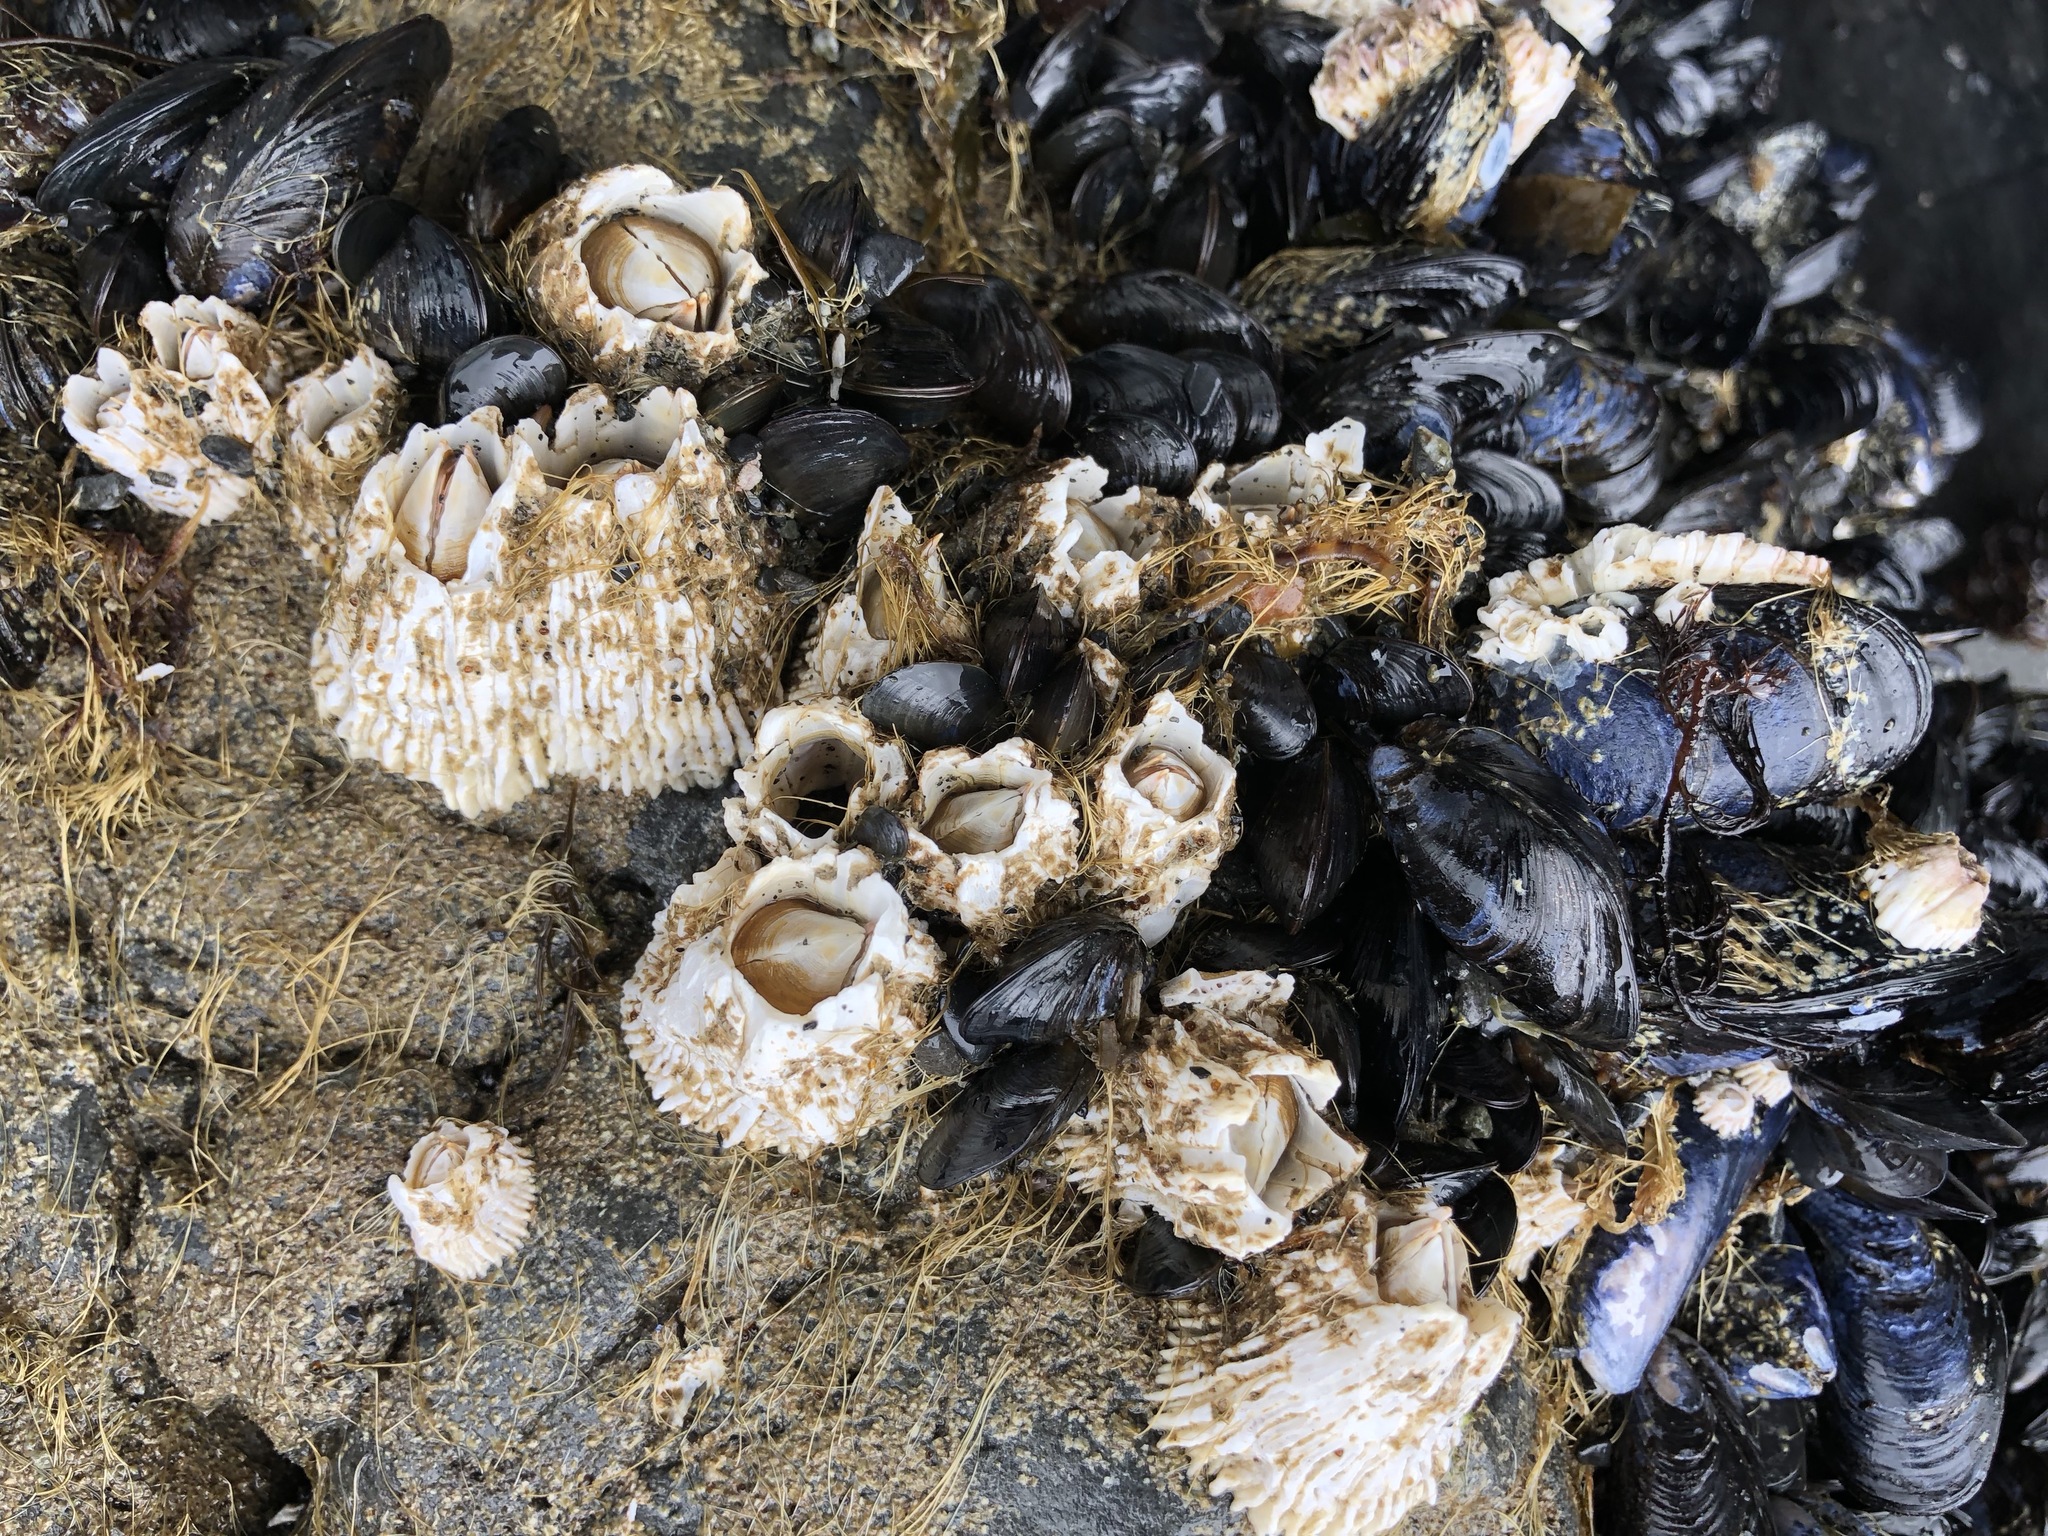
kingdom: Animalia
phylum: Arthropoda
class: Maxillopoda
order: Sessilia
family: Archaeobalanidae
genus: Semibalanus
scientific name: Semibalanus cariosus
